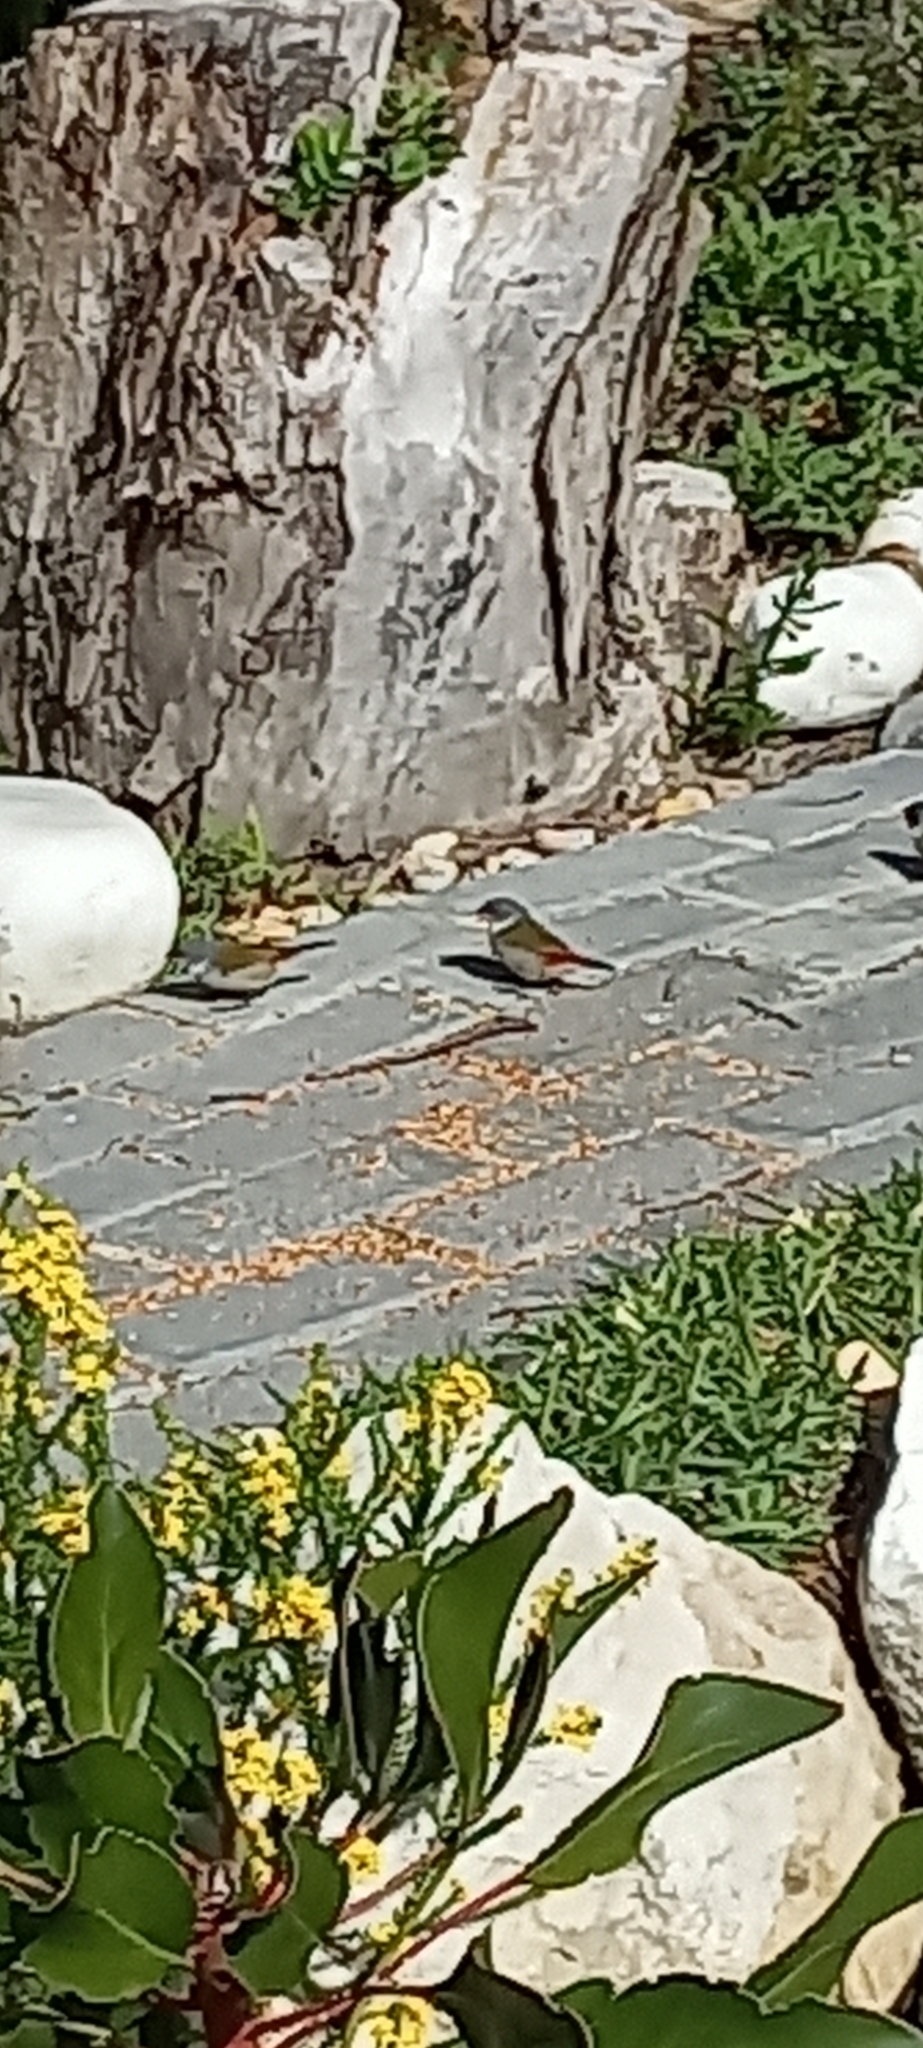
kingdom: Animalia
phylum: Chordata
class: Aves
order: Passeriformes
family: Estrildidae
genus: Coccopygia
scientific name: Coccopygia melanotis
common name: Swee waxbill
